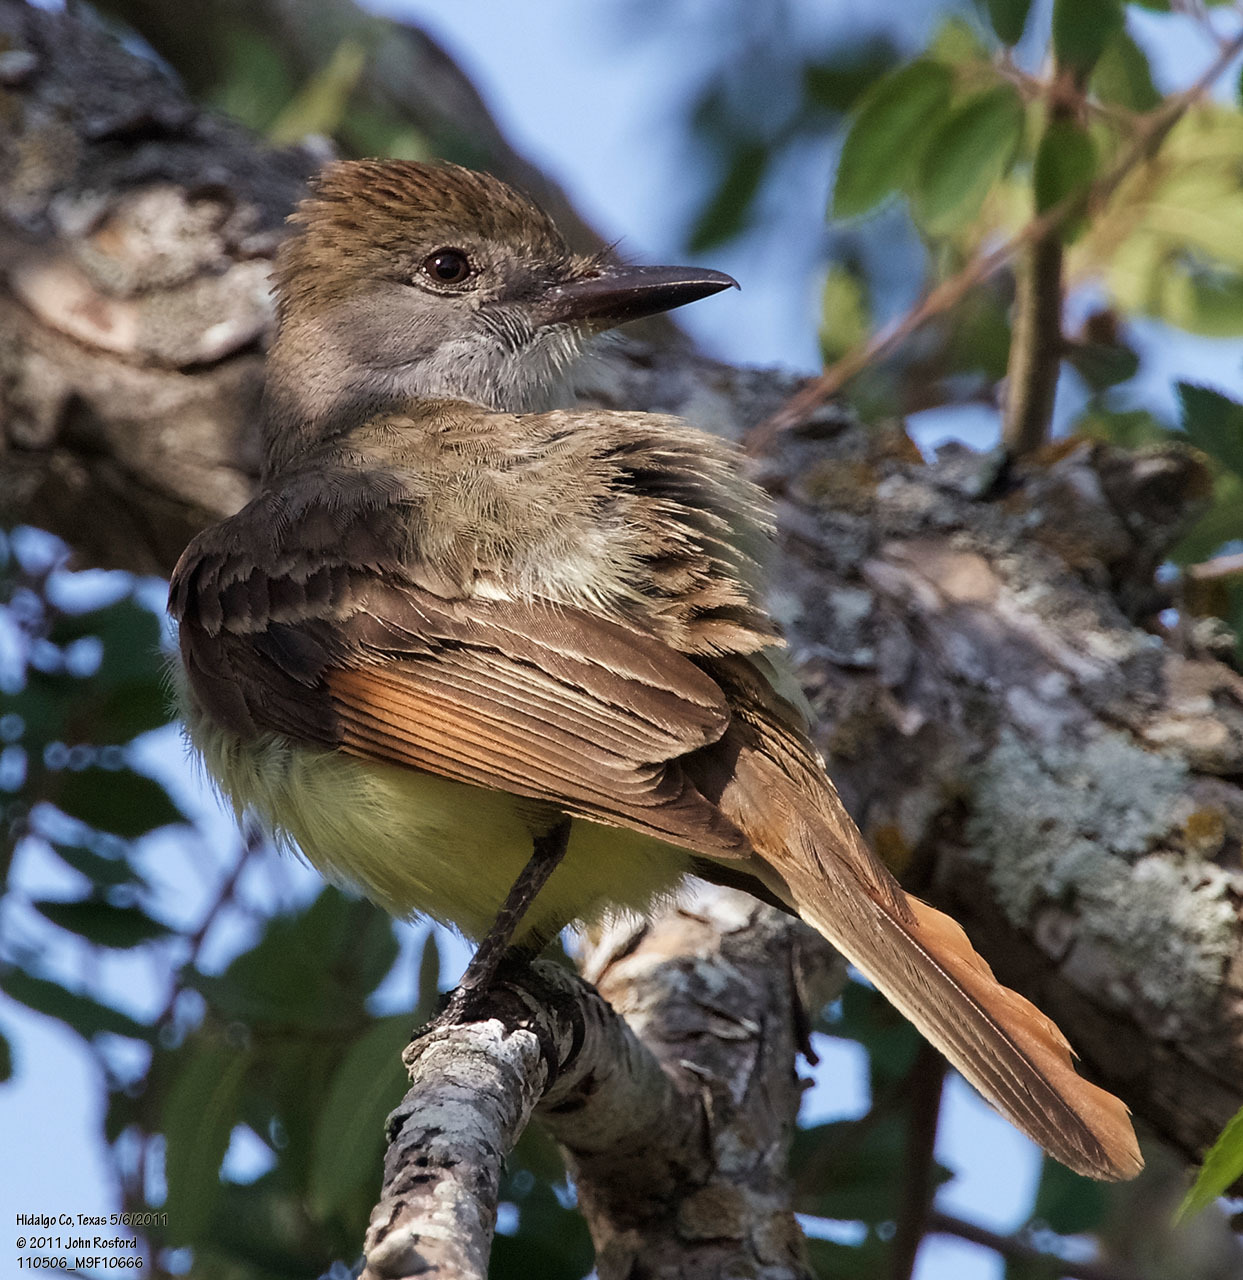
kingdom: Animalia
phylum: Chordata
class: Aves
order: Passeriformes
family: Tyrannidae
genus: Myiarchus
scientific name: Myiarchus tyrannulus
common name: Brown-crested flycatcher
